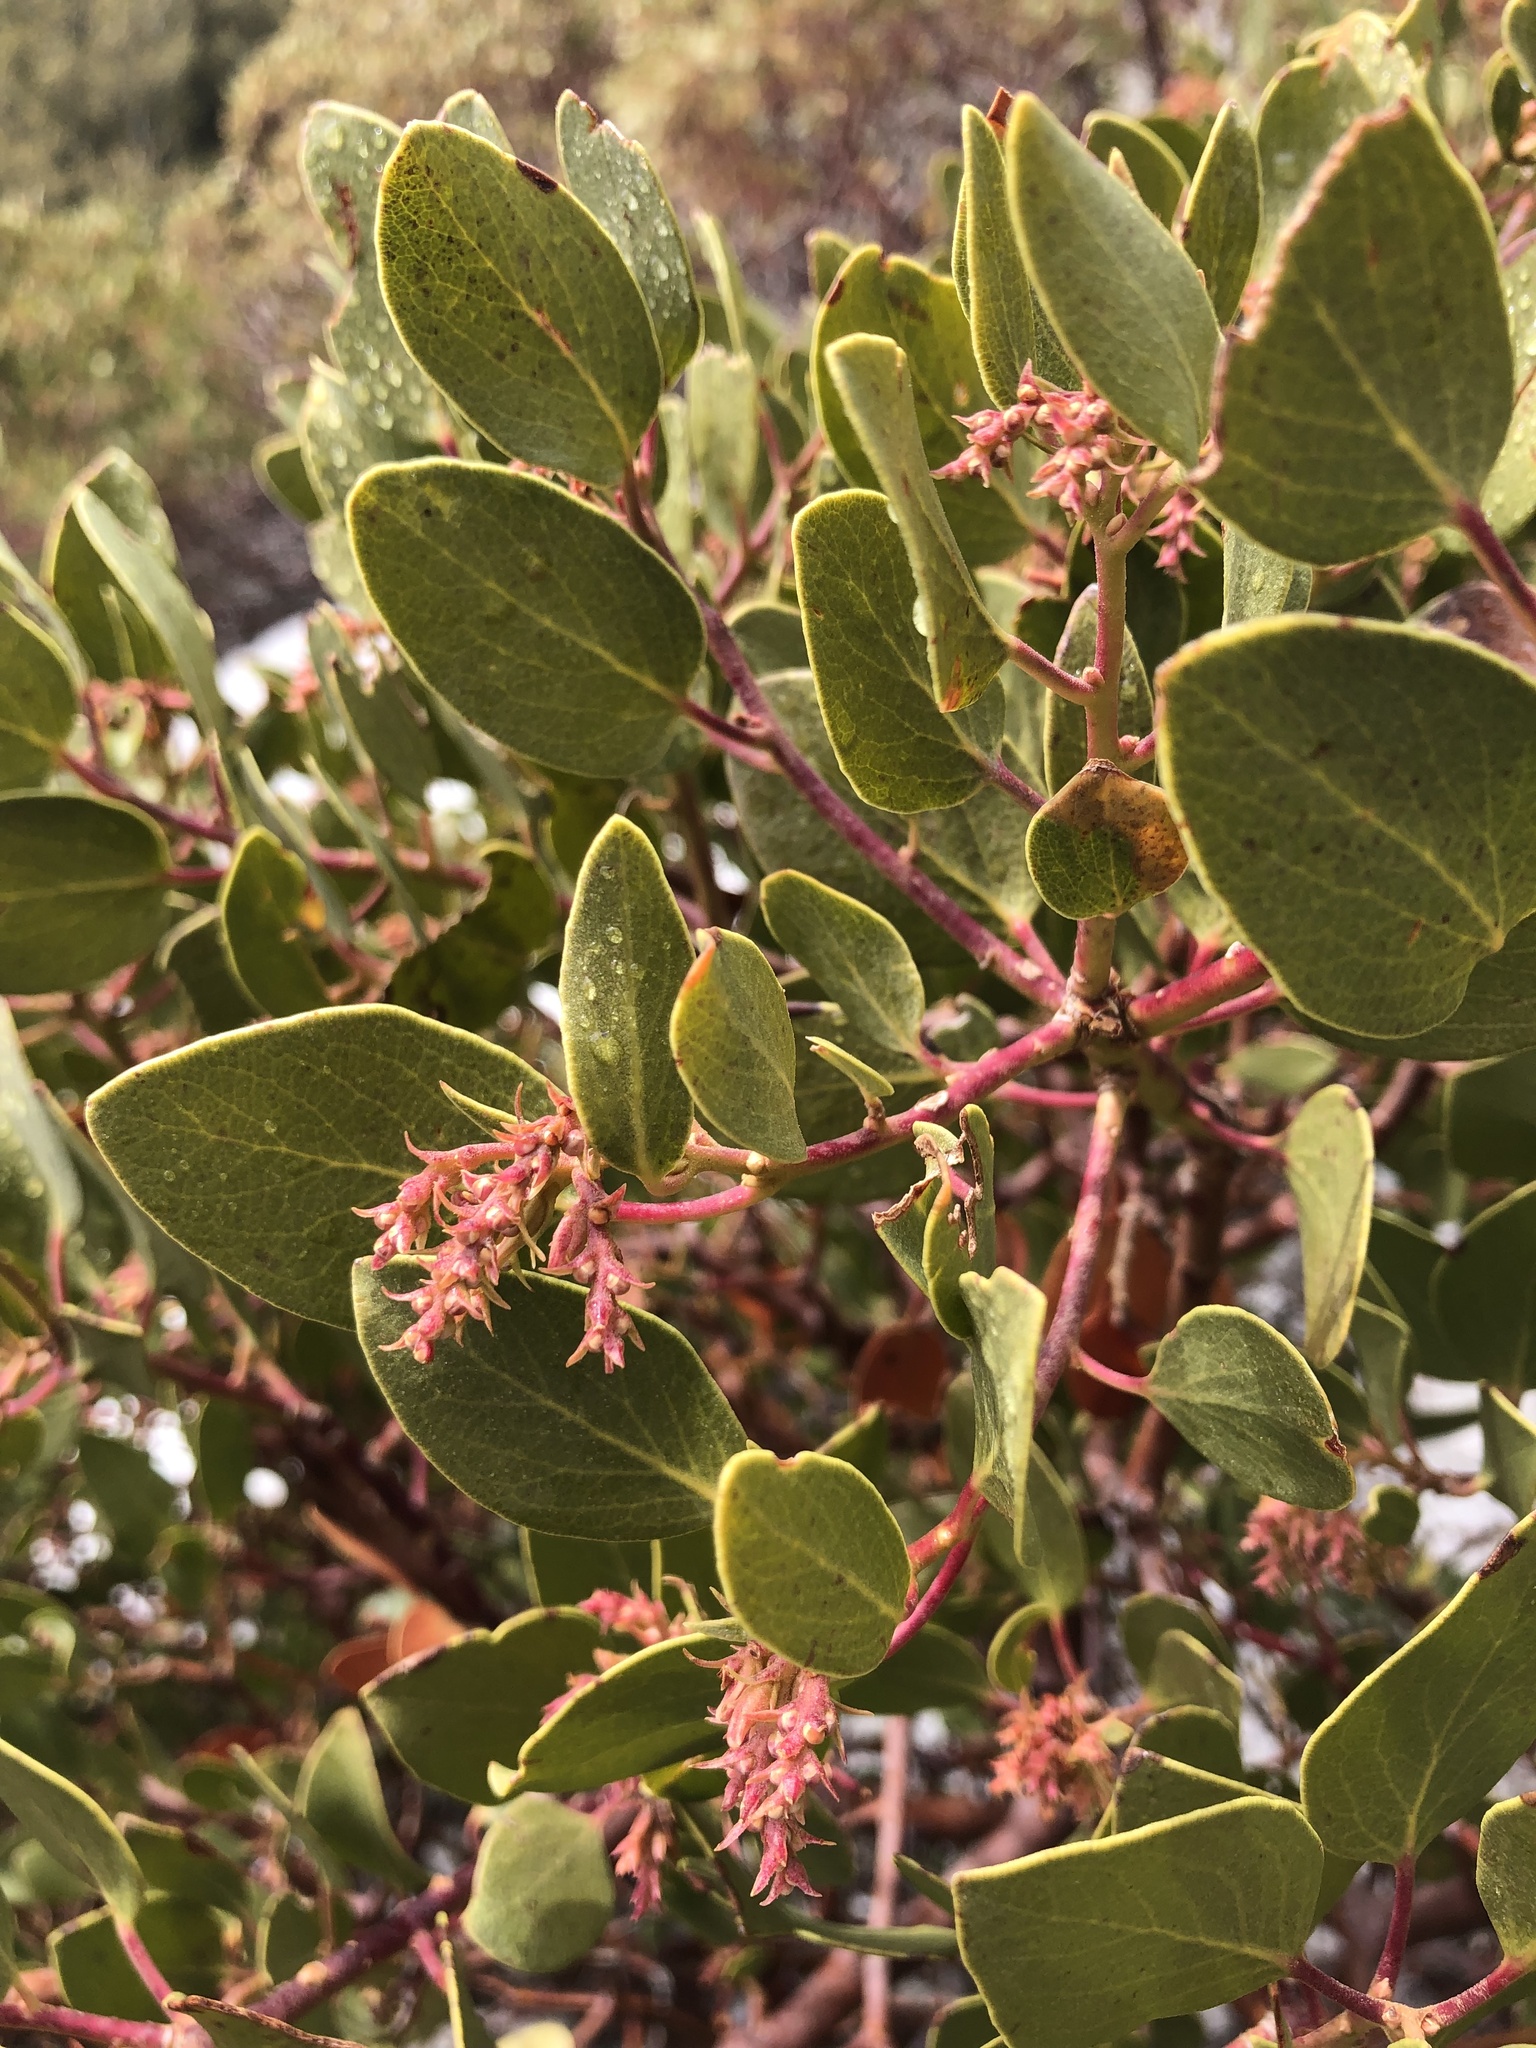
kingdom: Plantae
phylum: Tracheophyta
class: Magnoliopsida
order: Ericales
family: Ericaceae
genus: Arctostaphylos
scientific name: Arctostaphylos patula
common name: Green-leaf manzanita
